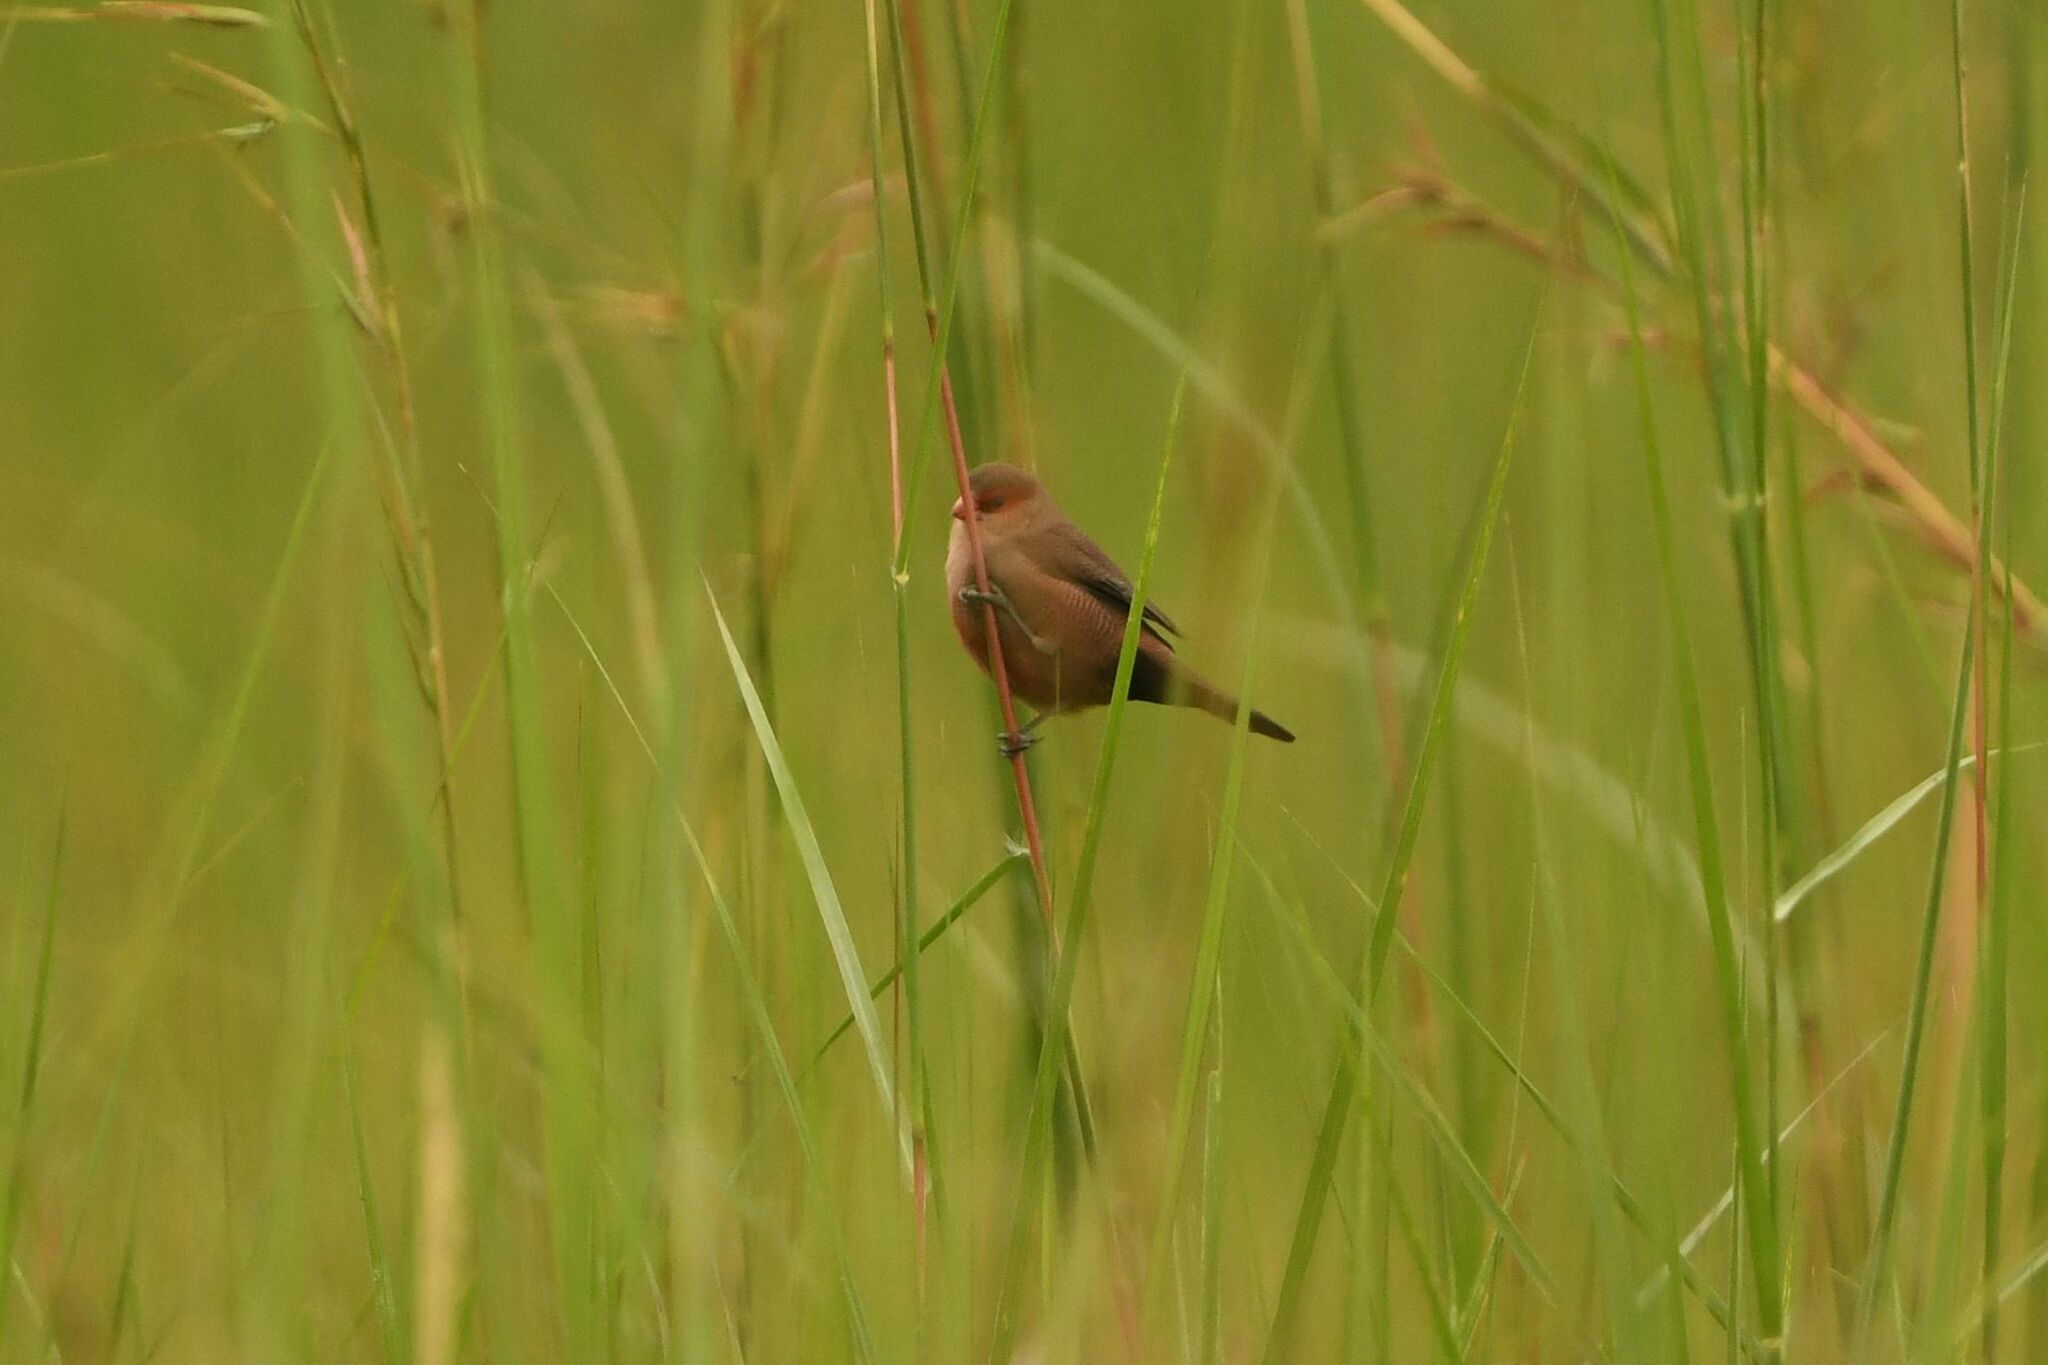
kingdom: Animalia
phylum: Chordata
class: Aves
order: Passeriformes
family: Estrildidae
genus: Estrilda
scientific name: Estrilda astrild
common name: Common waxbill
